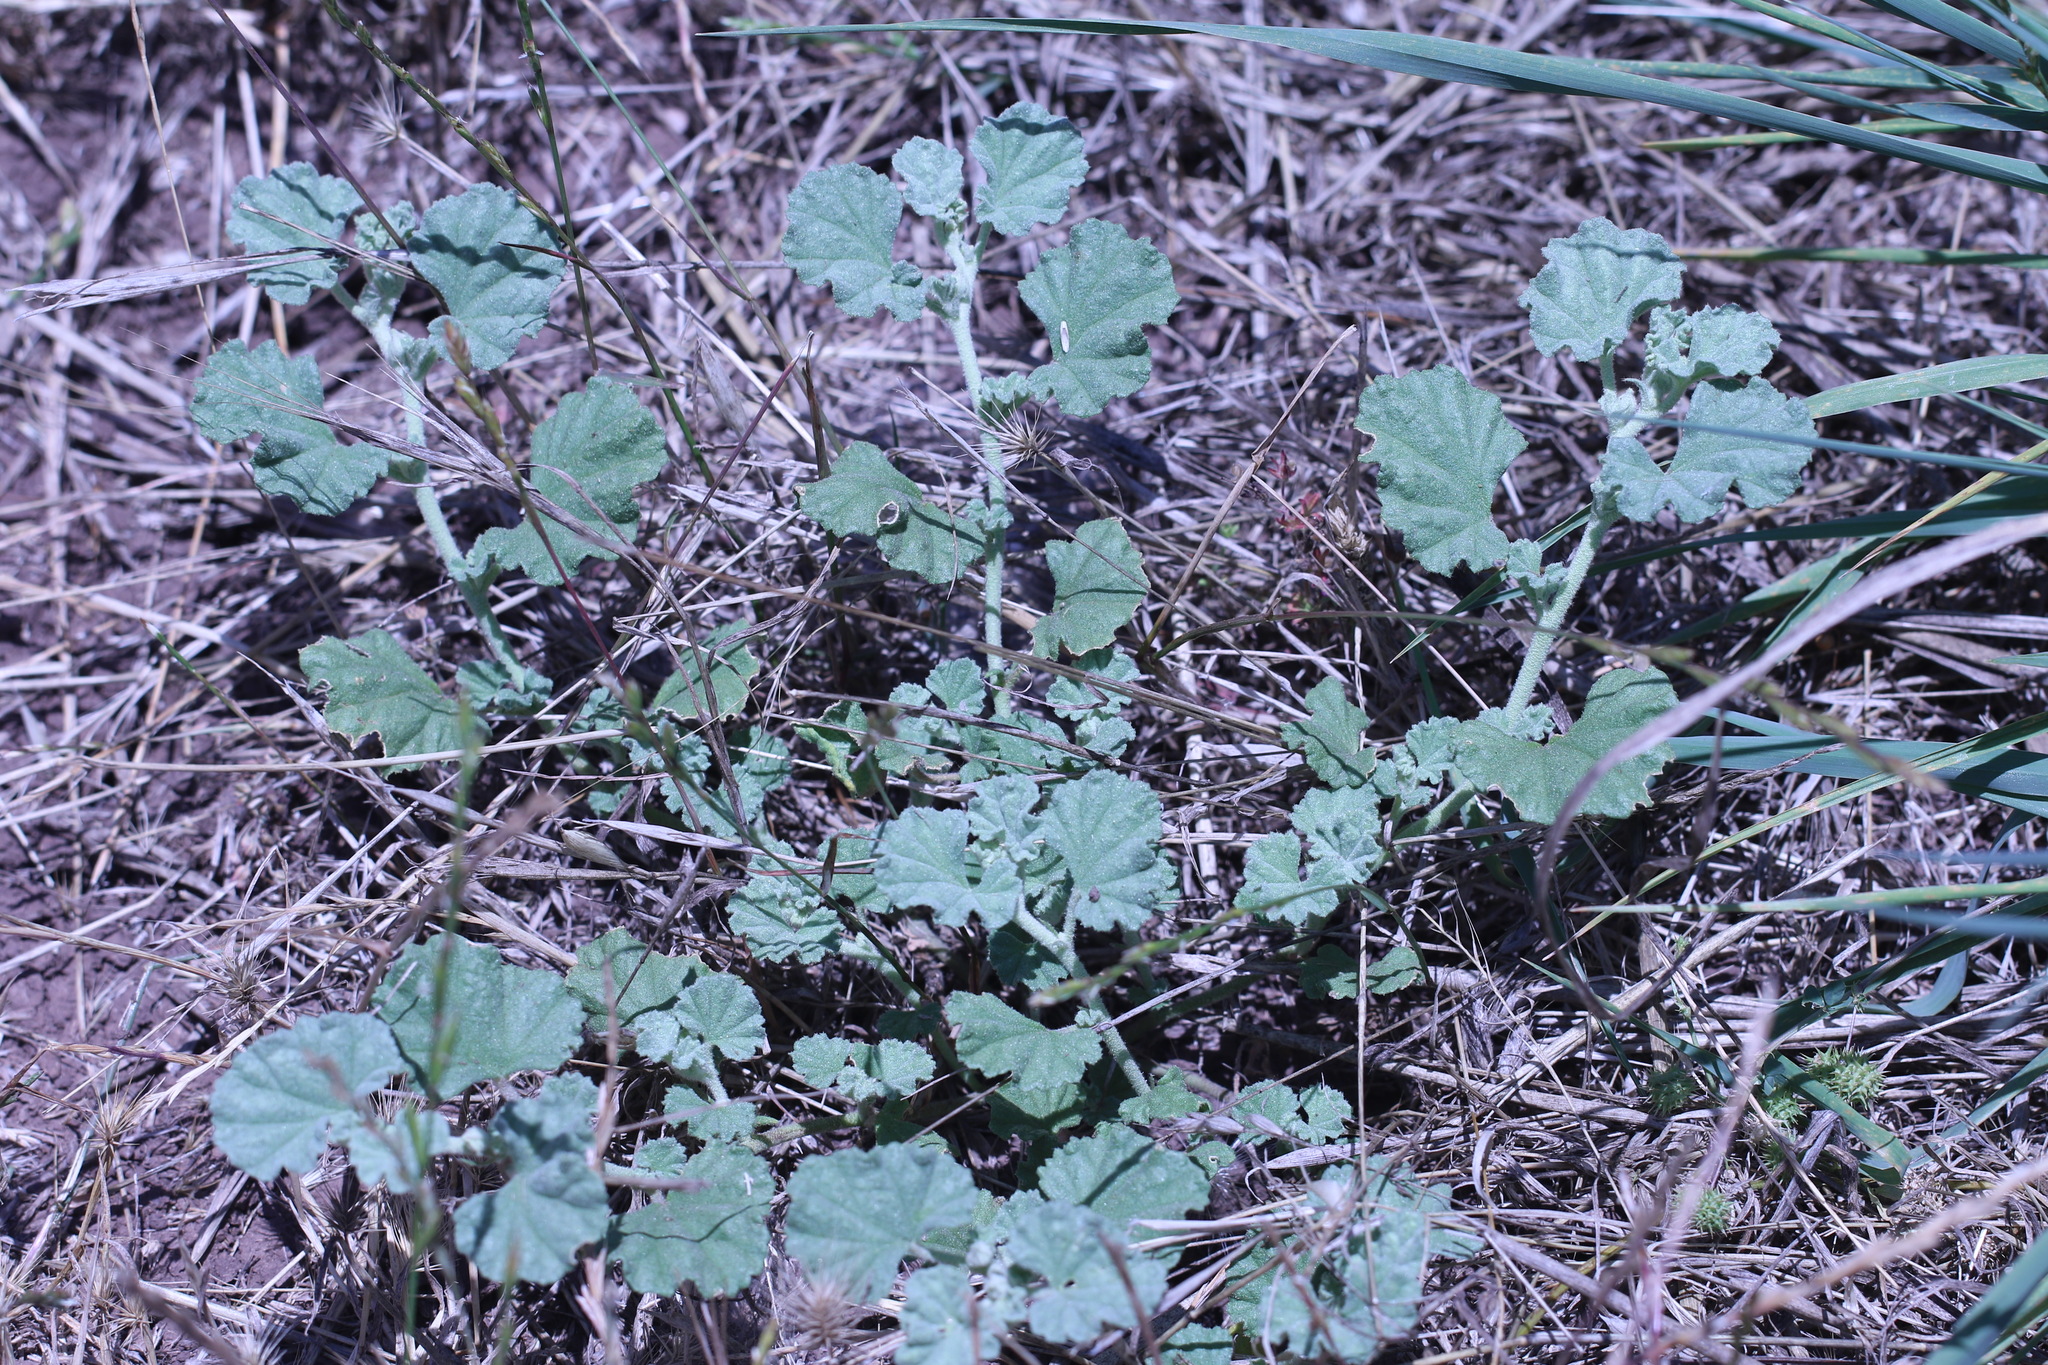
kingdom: Plantae
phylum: Tracheophyta
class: Magnoliopsida
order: Malvales
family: Malvaceae
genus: Malvella
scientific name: Malvella leprosa
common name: Alkali-mallow
